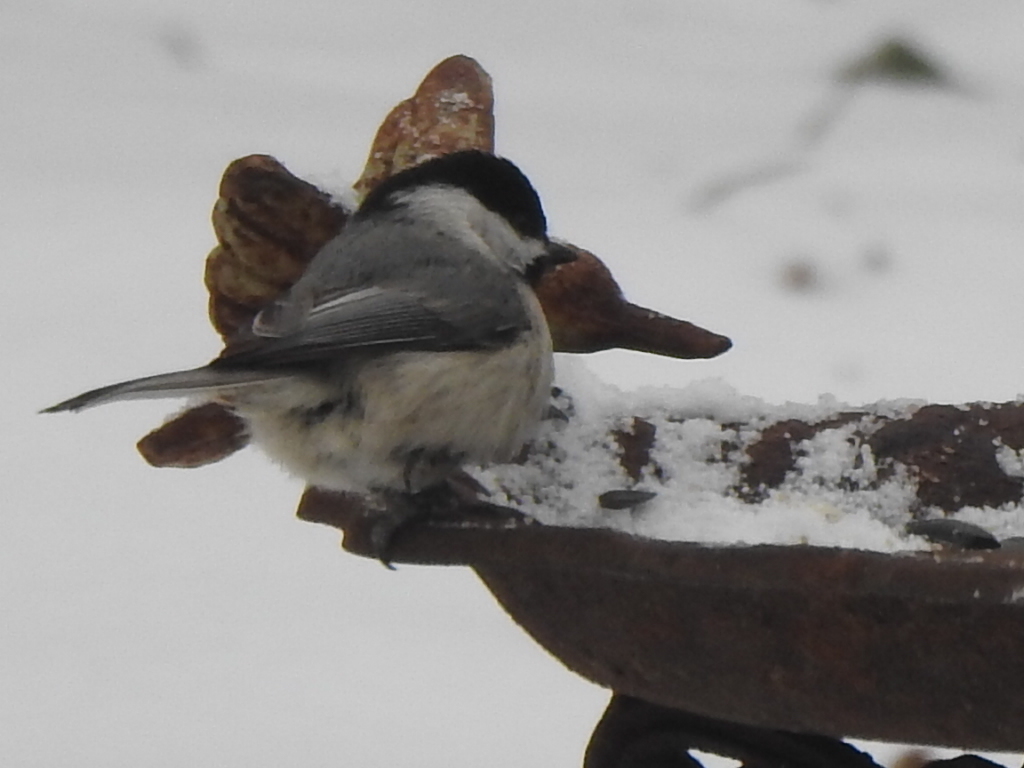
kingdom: Animalia
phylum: Chordata
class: Aves
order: Passeriformes
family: Paridae
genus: Poecile
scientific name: Poecile carolinensis
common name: Carolina chickadee
